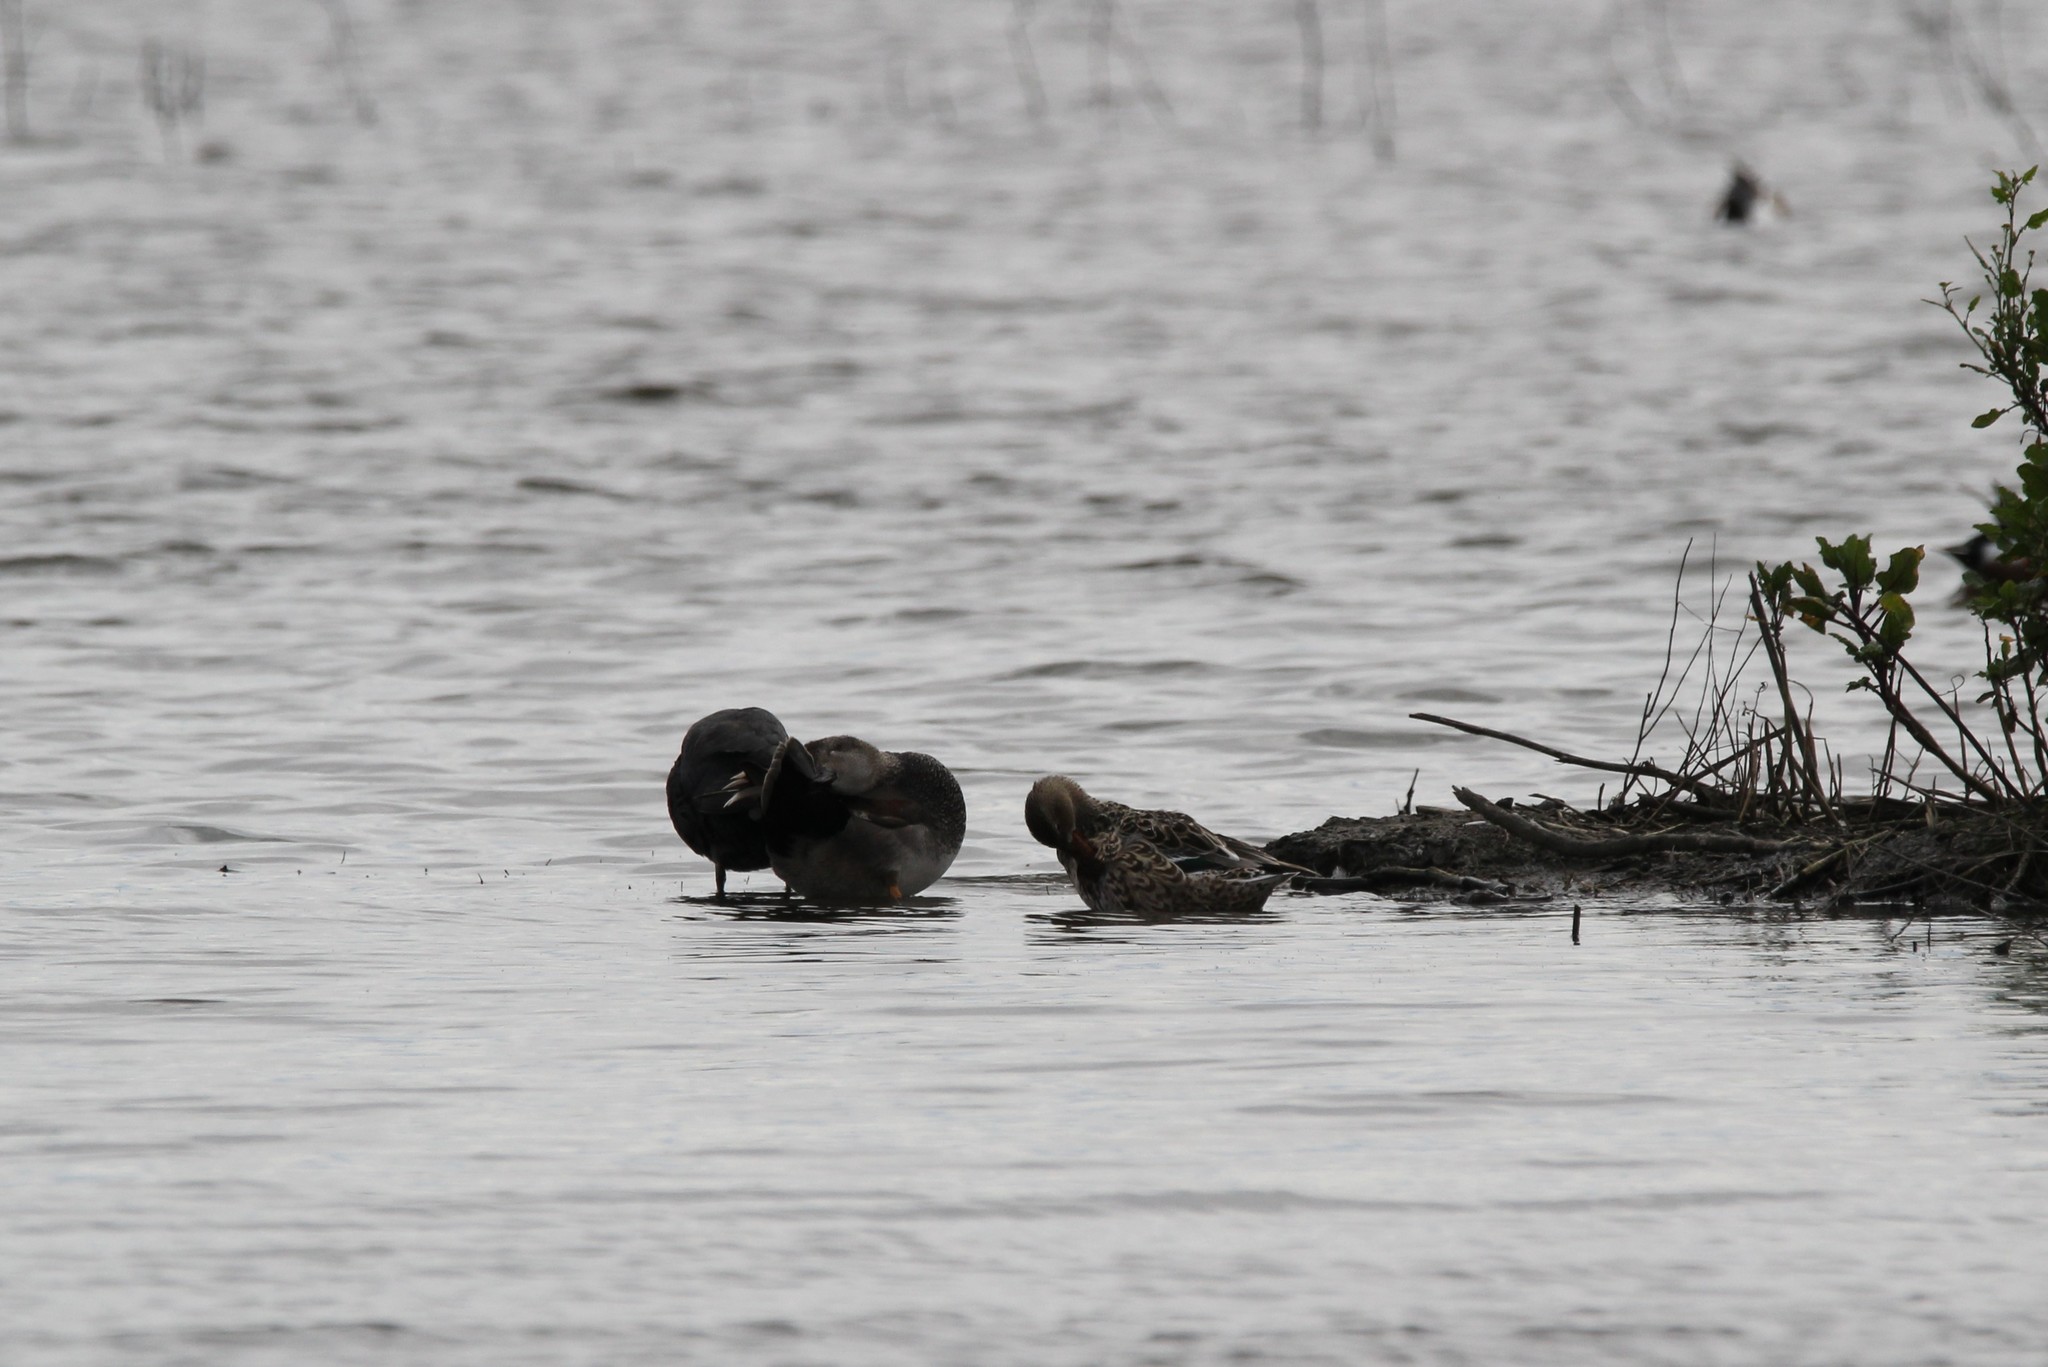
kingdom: Animalia
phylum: Chordata
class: Aves
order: Anseriformes
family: Anatidae
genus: Mareca
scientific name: Mareca strepera
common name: Gadwall
